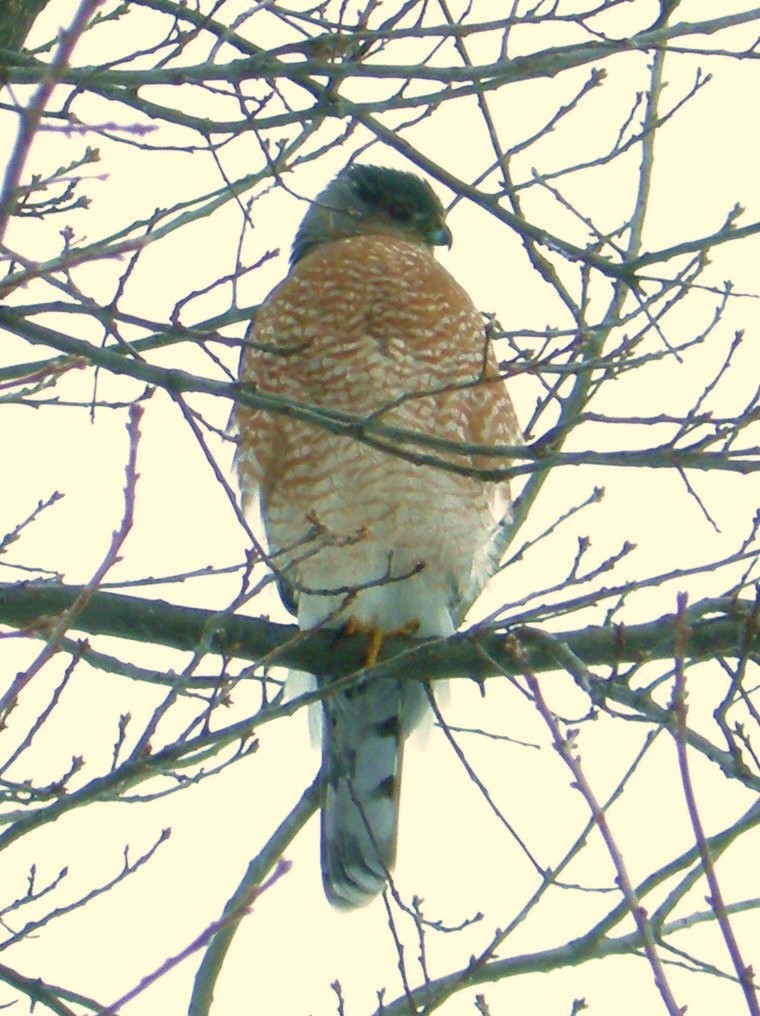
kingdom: Animalia
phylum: Chordata
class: Aves
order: Accipitriformes
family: Accipitridae
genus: Accipiter
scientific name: Accipiter cooperii
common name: Cooper's hawk
